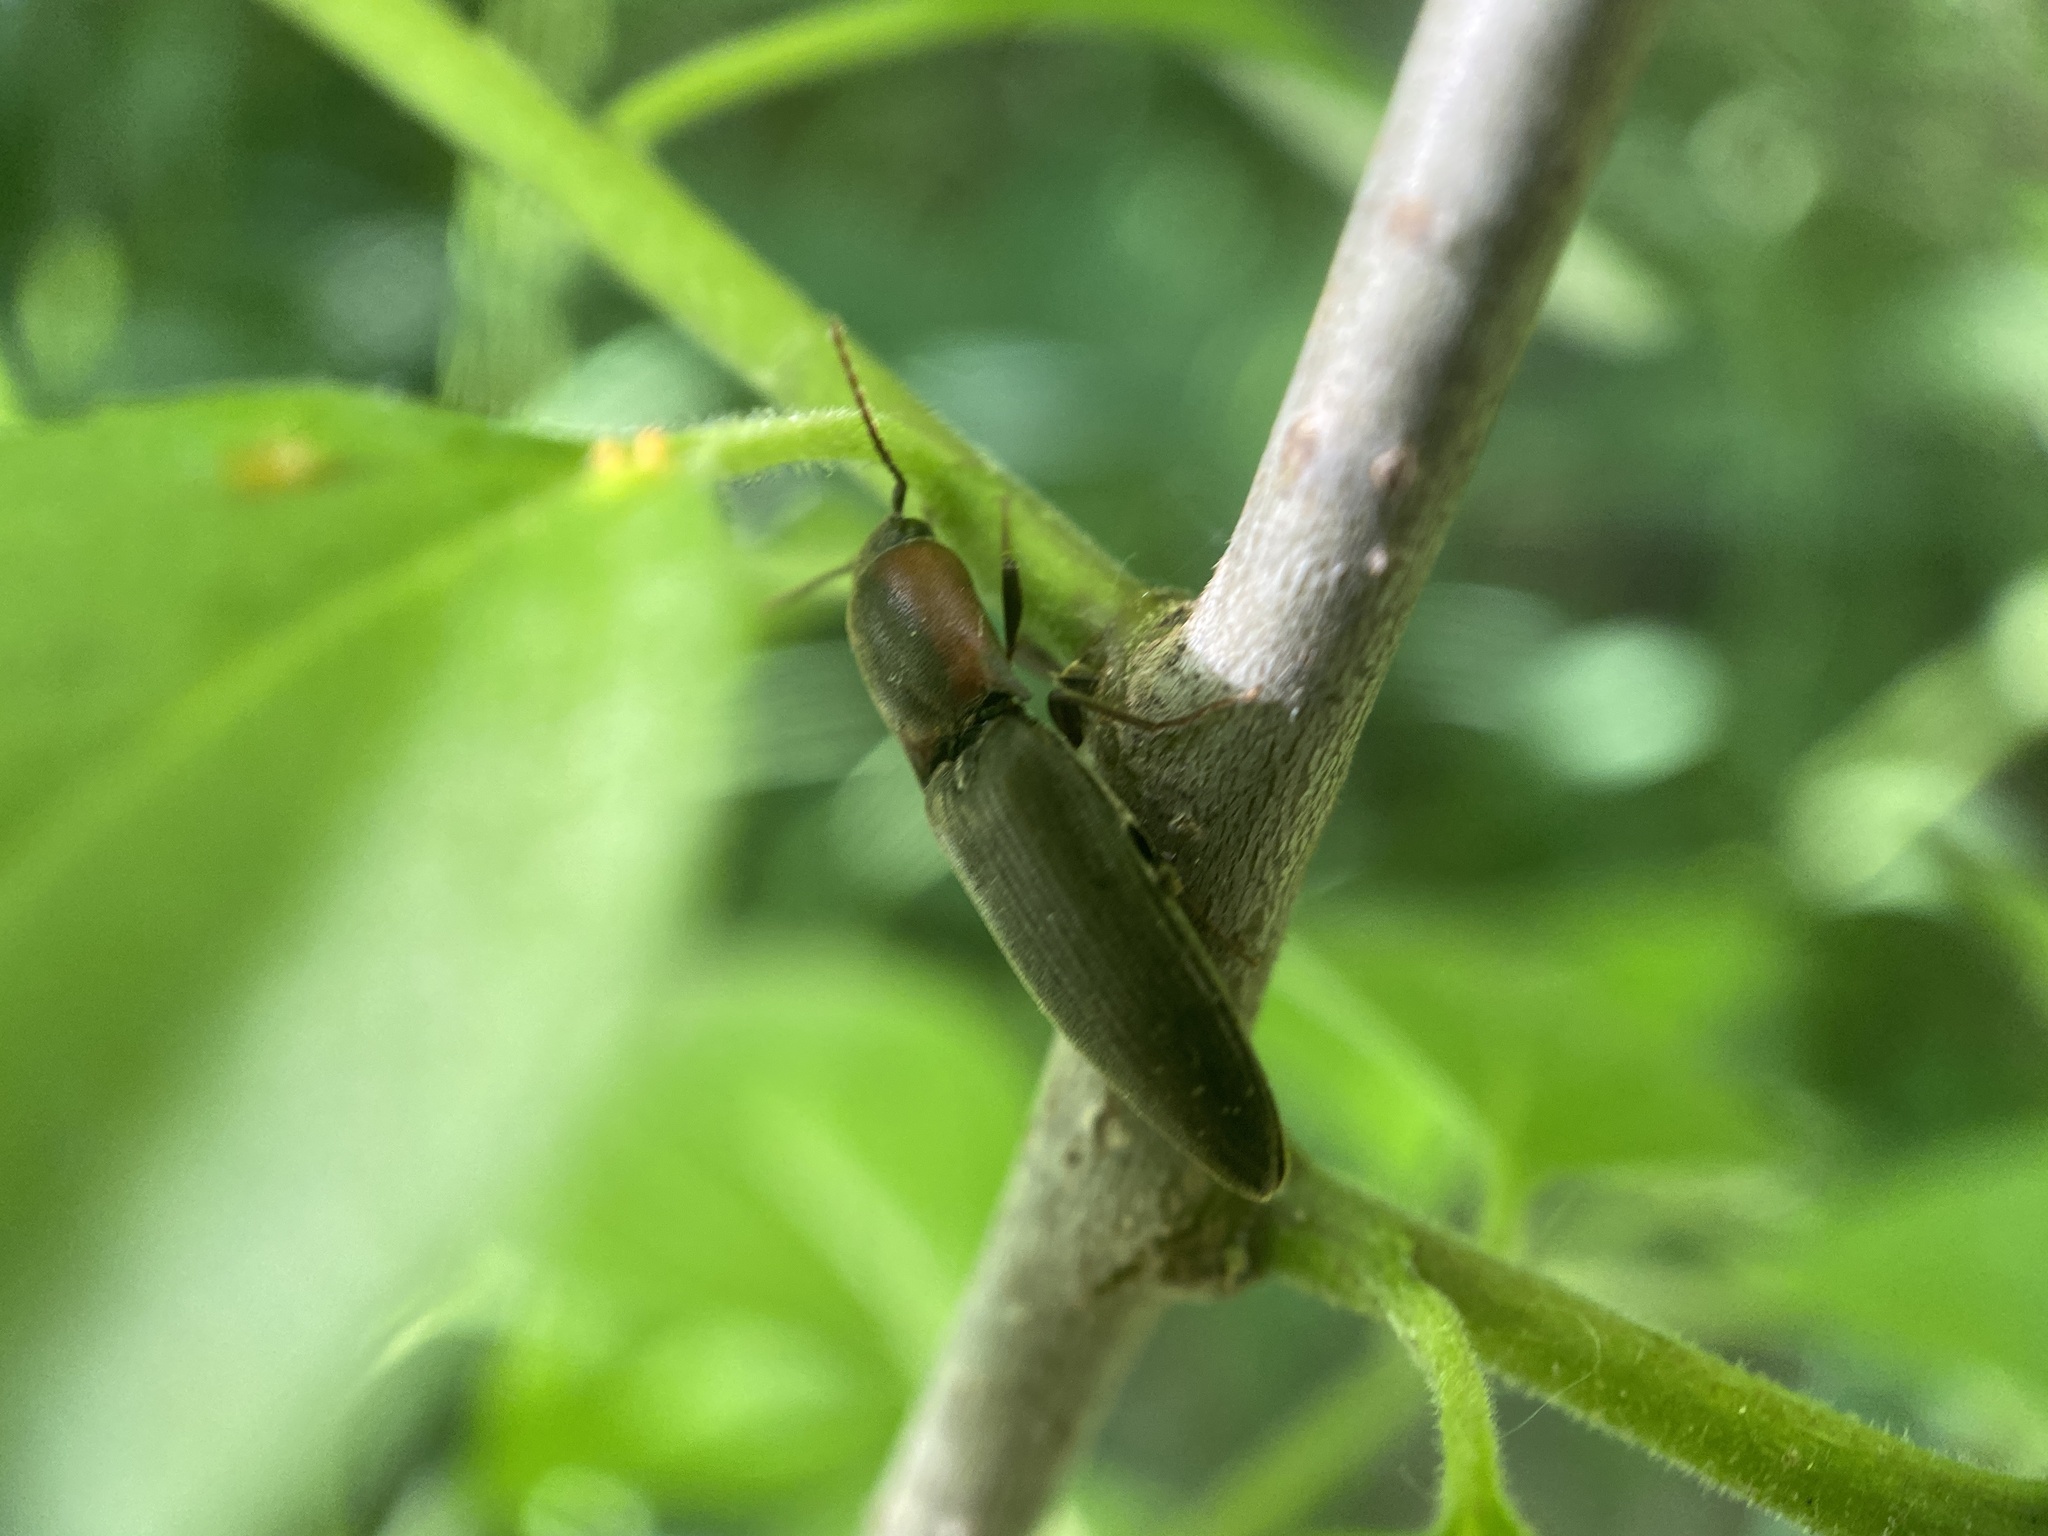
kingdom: Animalia
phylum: Arthropoda
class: Insecta
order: Coleoptera
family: Elateridae
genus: Agriotes
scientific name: Agriotes fucosus
